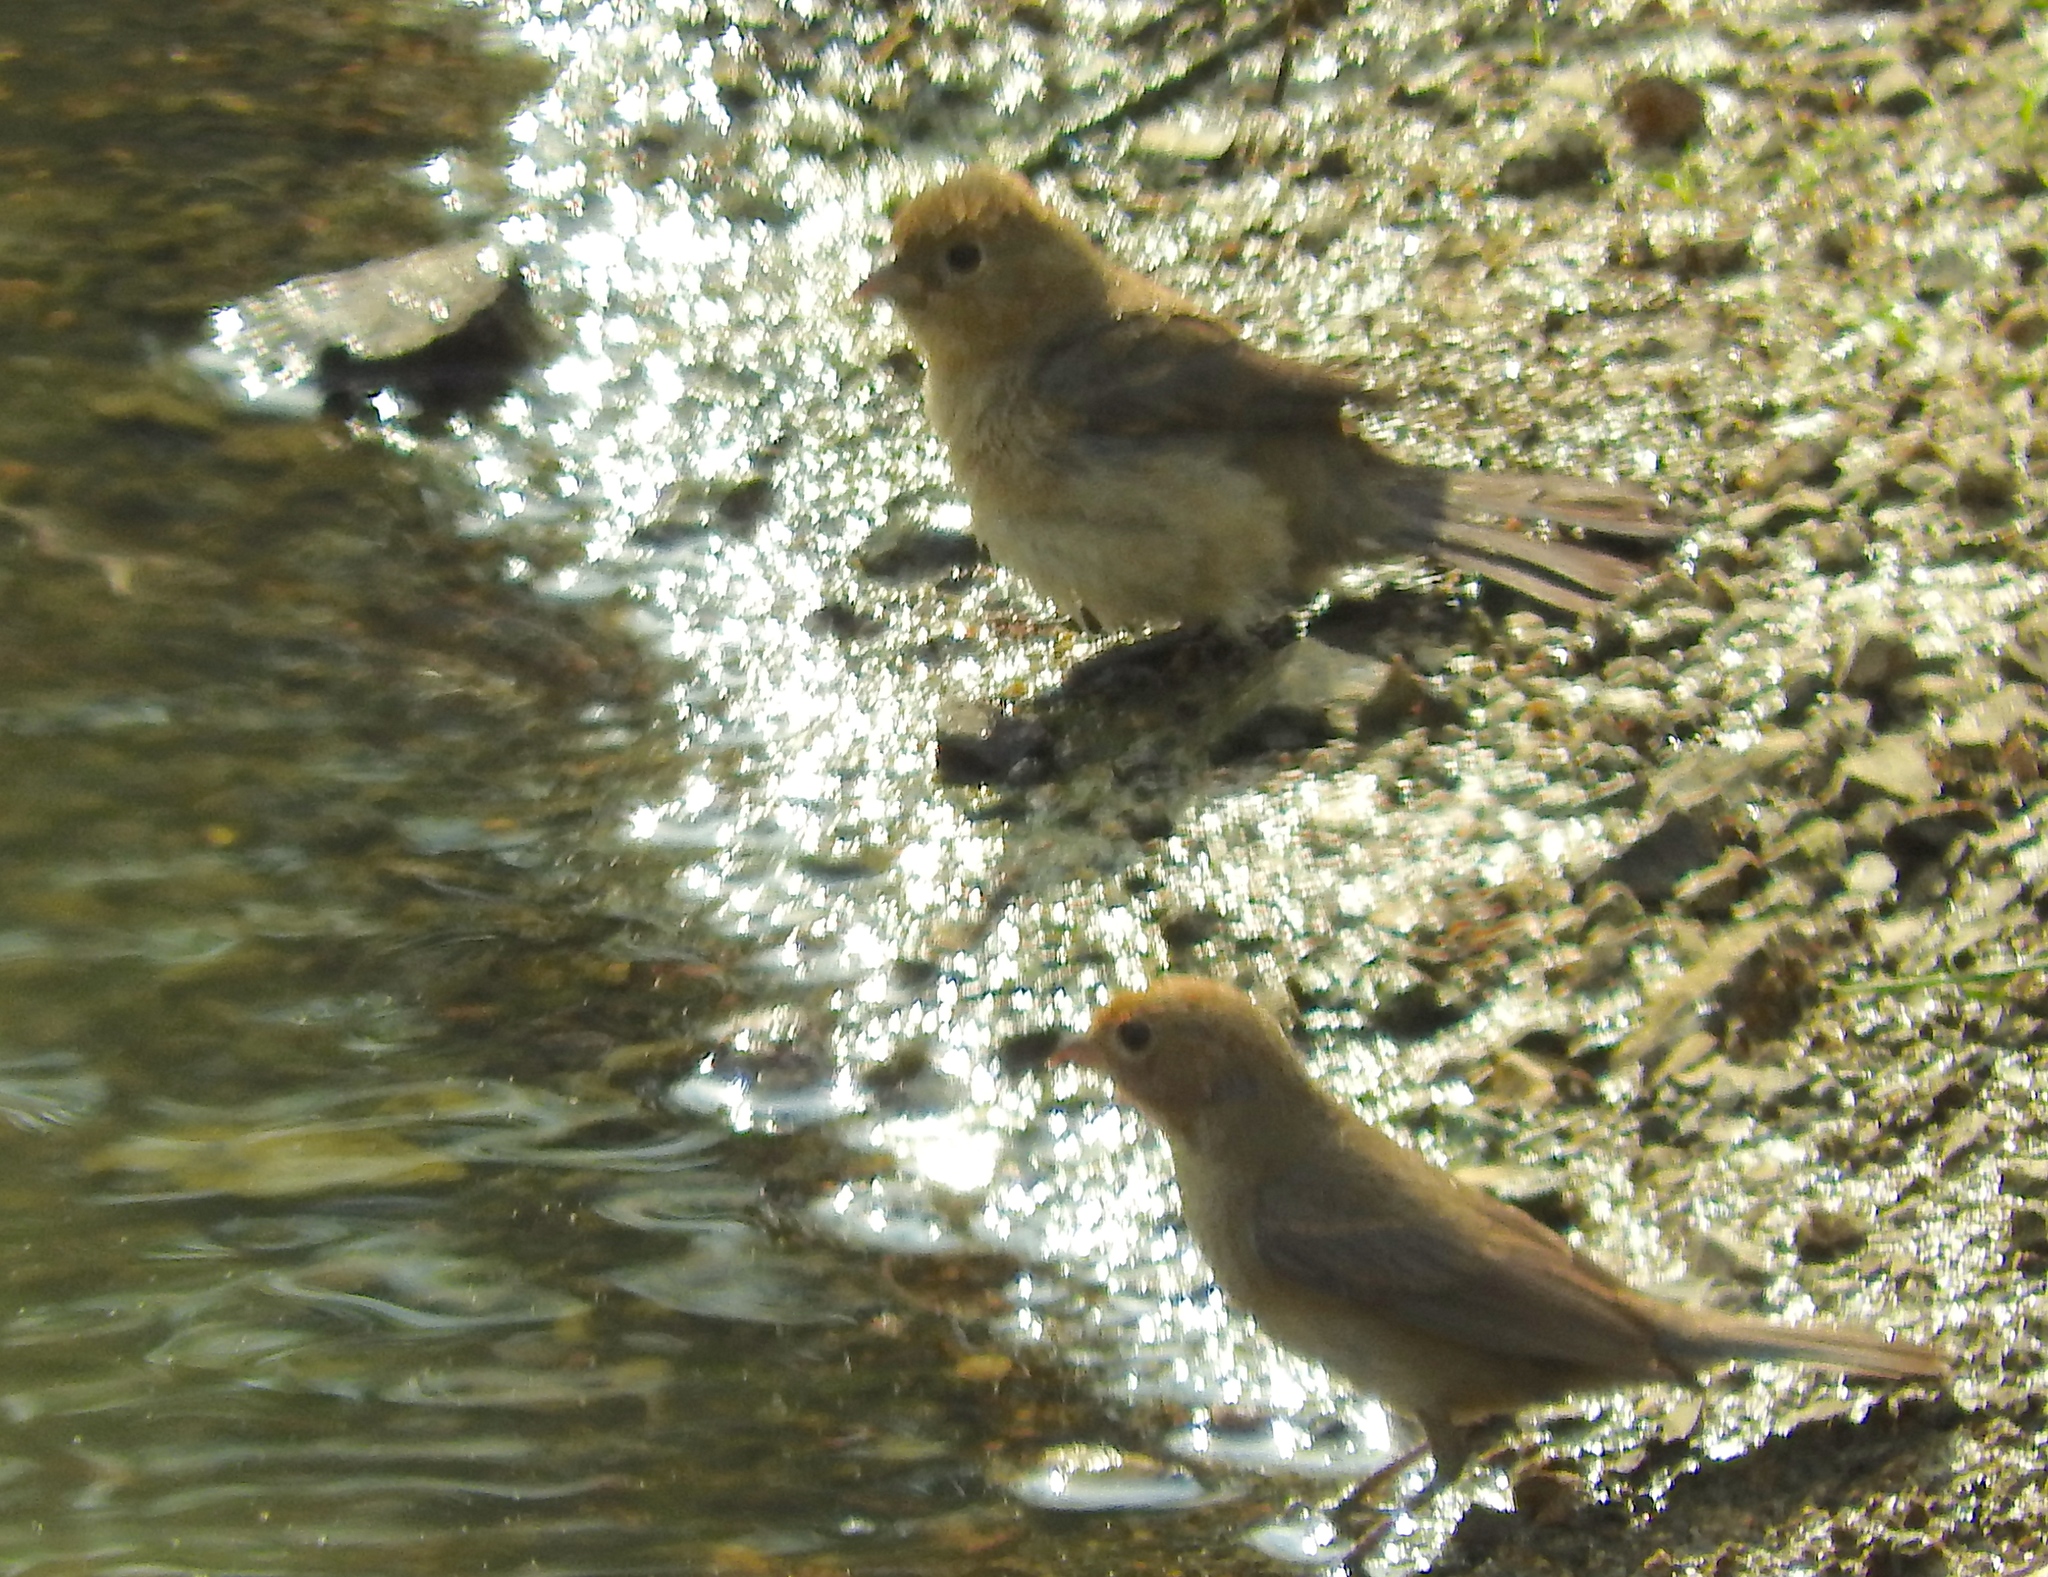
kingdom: Animalia
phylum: Chordata
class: Aves
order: Passeriformes
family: Cardinalidae
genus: Passerina
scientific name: Passerina versicolor
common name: Varied bunting
